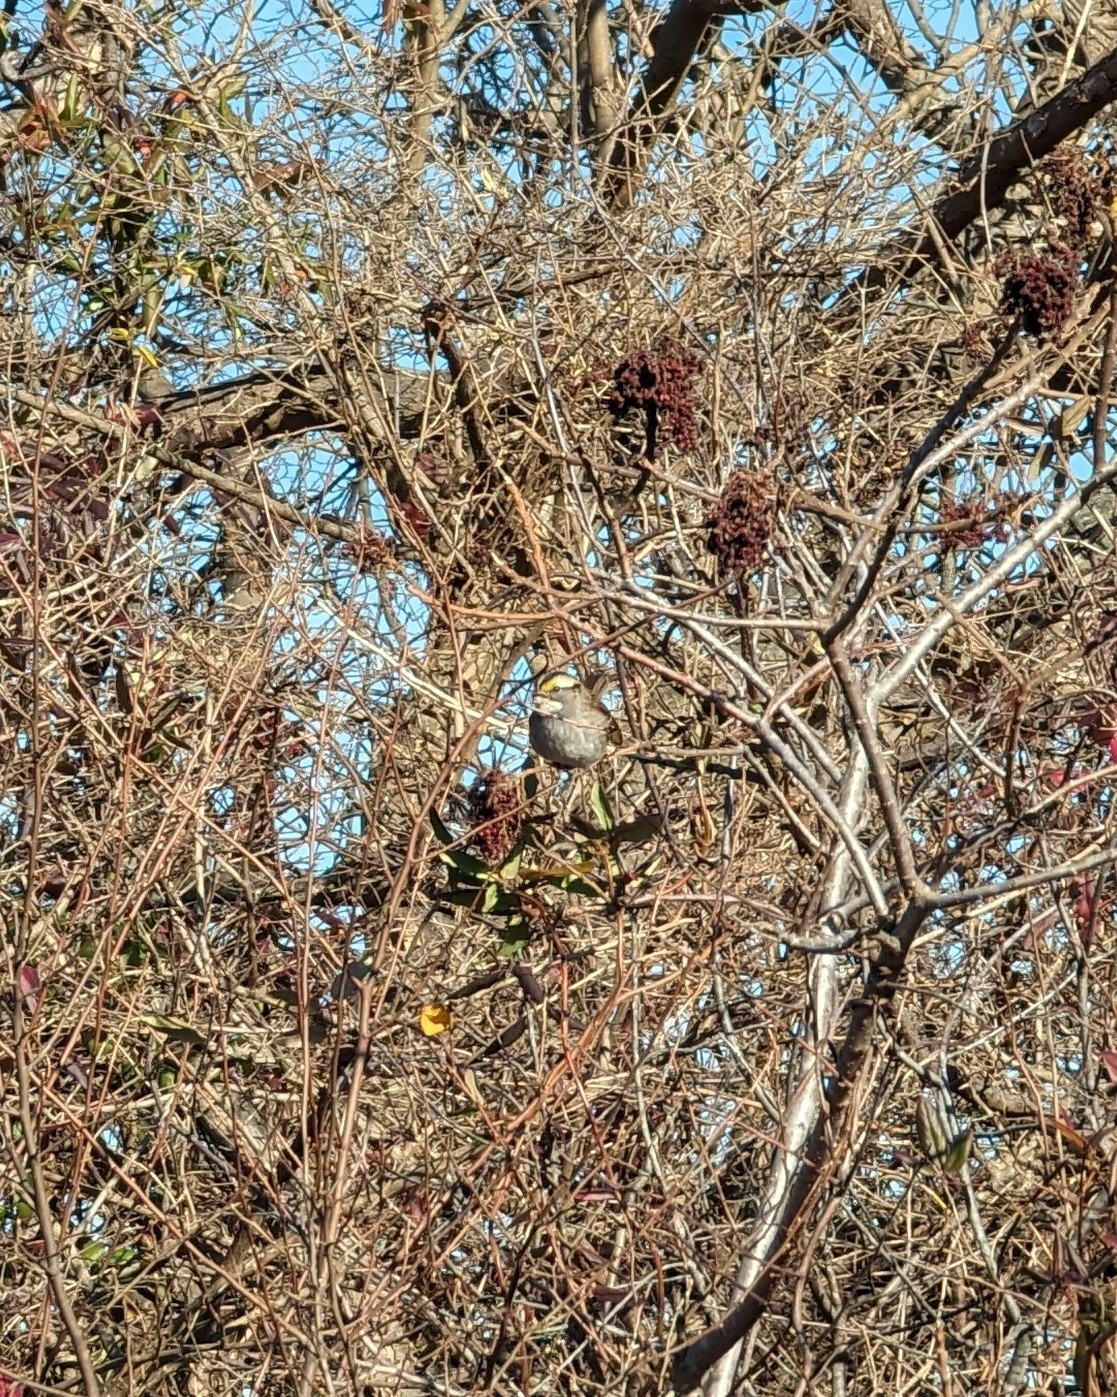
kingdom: Animalia
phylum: Chordata
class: Aves
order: Passeriformes
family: Passerellidae
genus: Zonotrichia
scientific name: Zonotrichia albicollis
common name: White-throated sparrow
